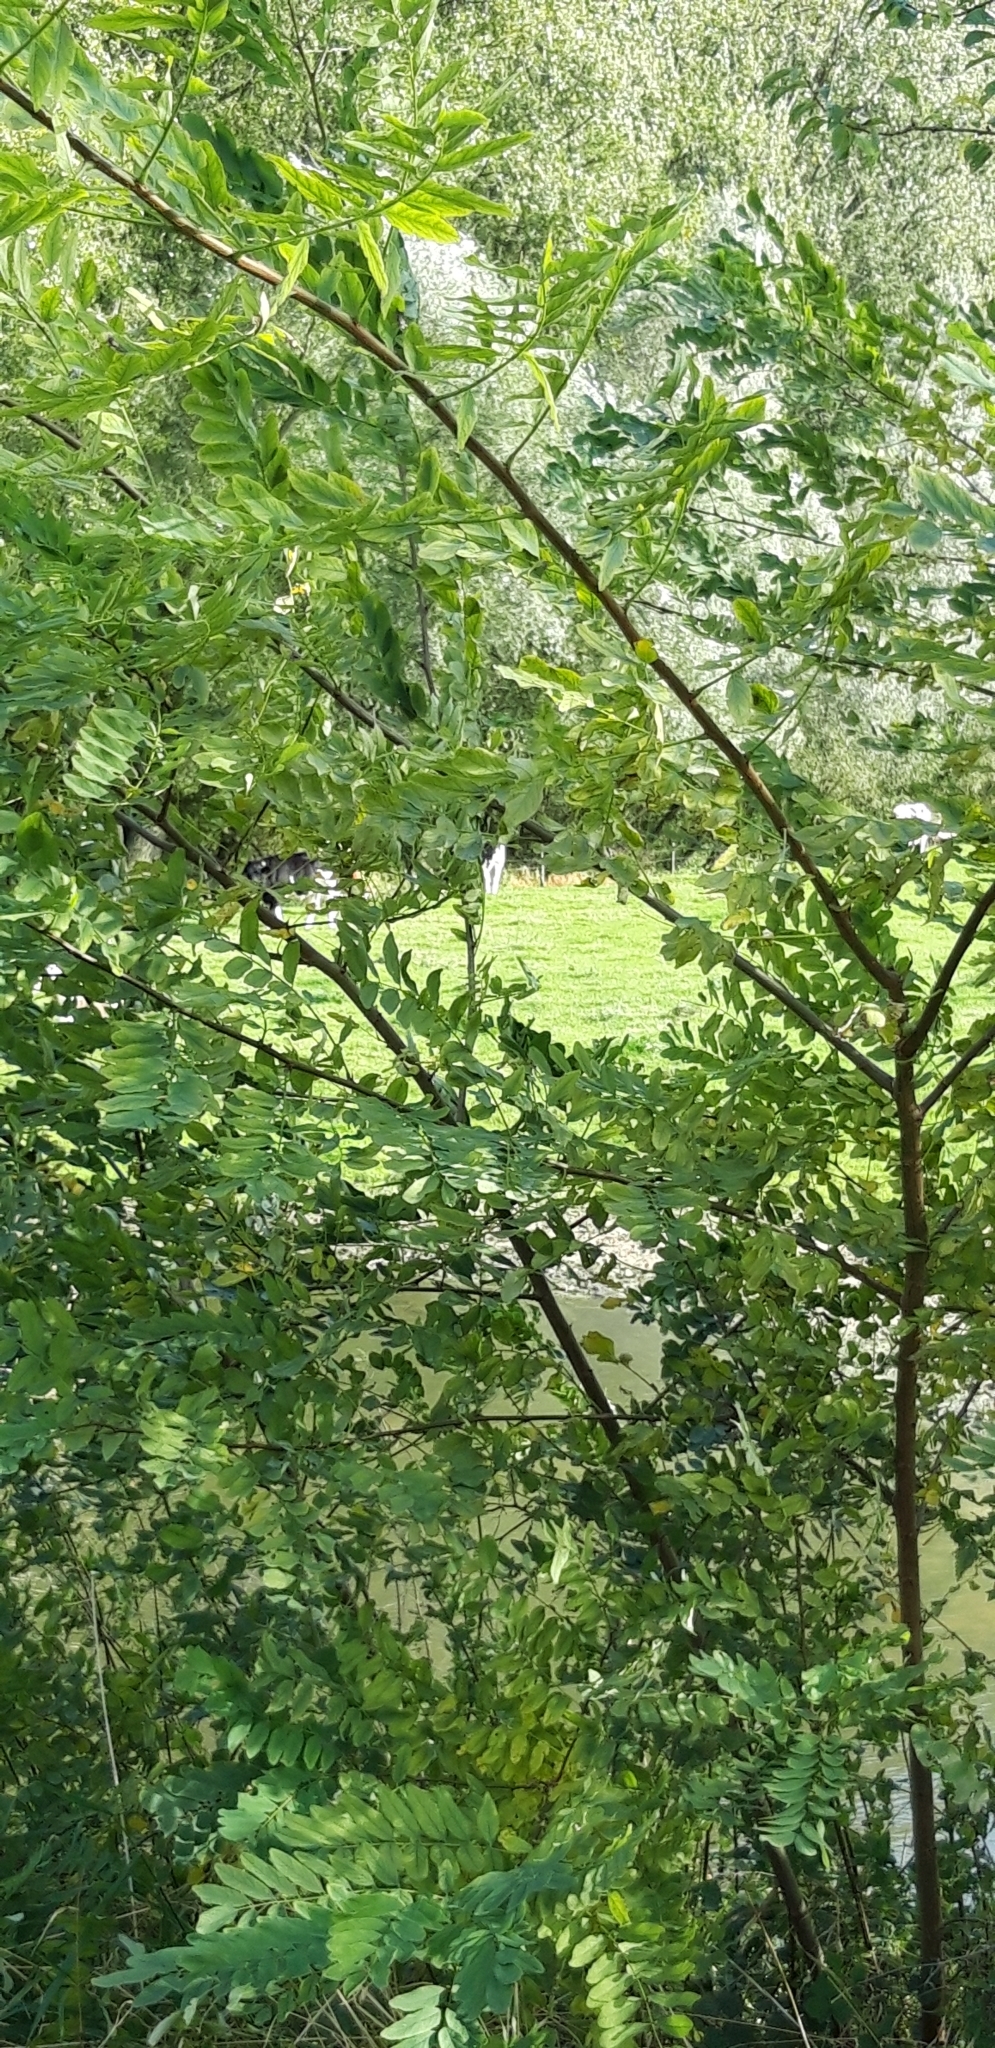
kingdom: Plantae
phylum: Tracheophyta
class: Magnoliopsida
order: Fabales
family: Fabaceae
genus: Robinia
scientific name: Robinia pseudoacacia
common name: Black locust
